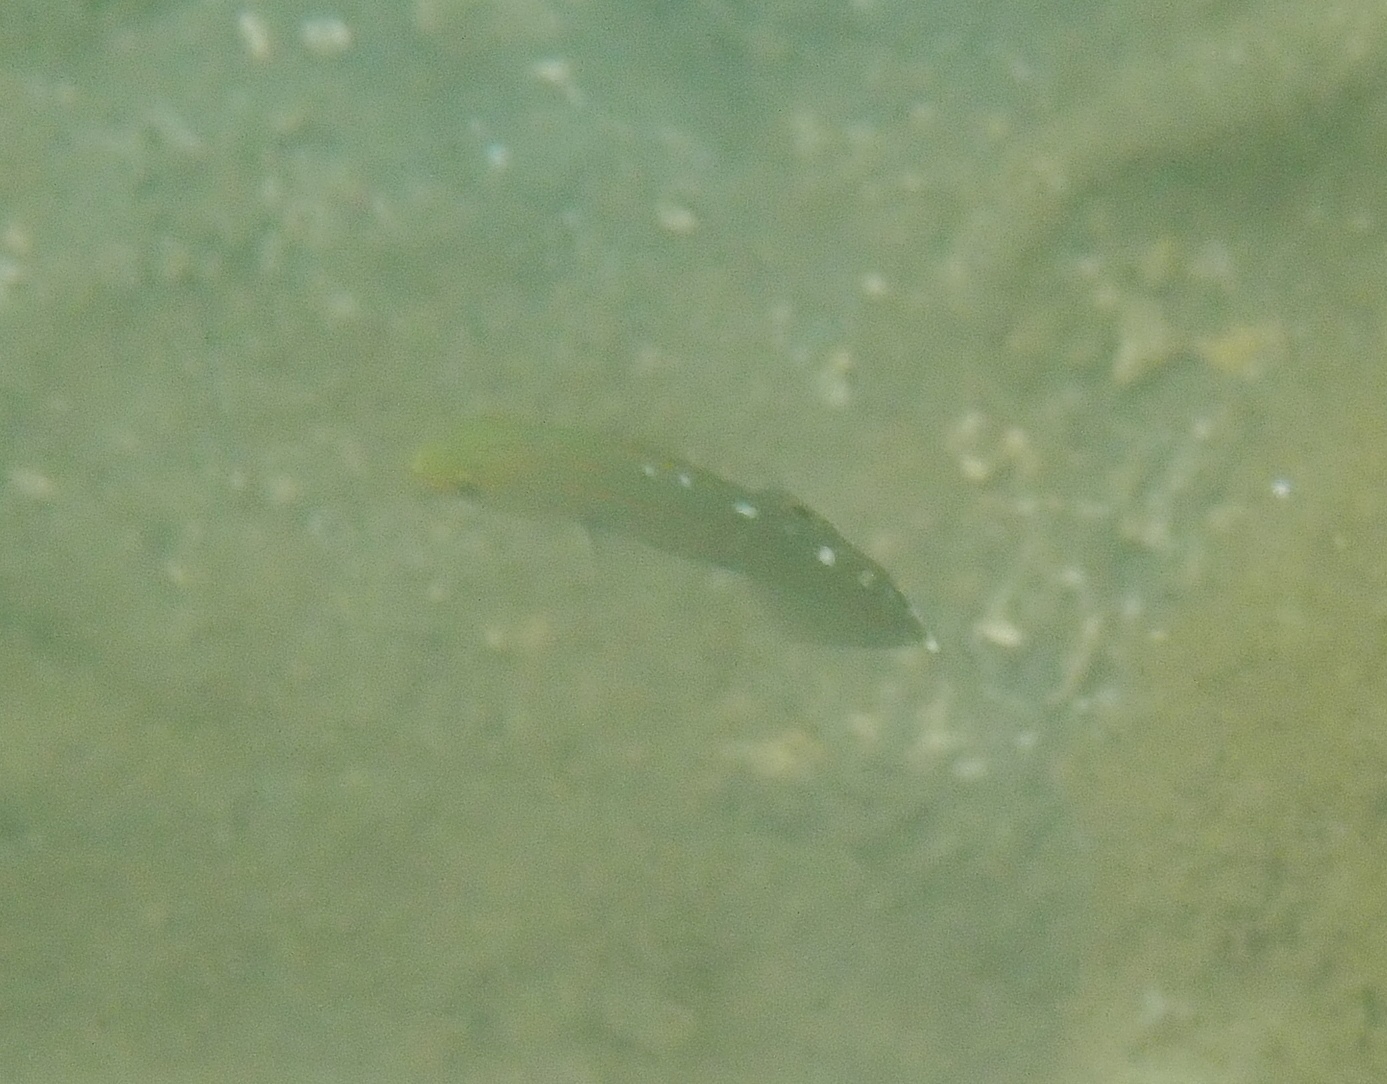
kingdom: Animalia
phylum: Chordata
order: Perciformes
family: Gobiidae
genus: Koumansetta
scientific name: Koumansetta rainfordi
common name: Old glory
